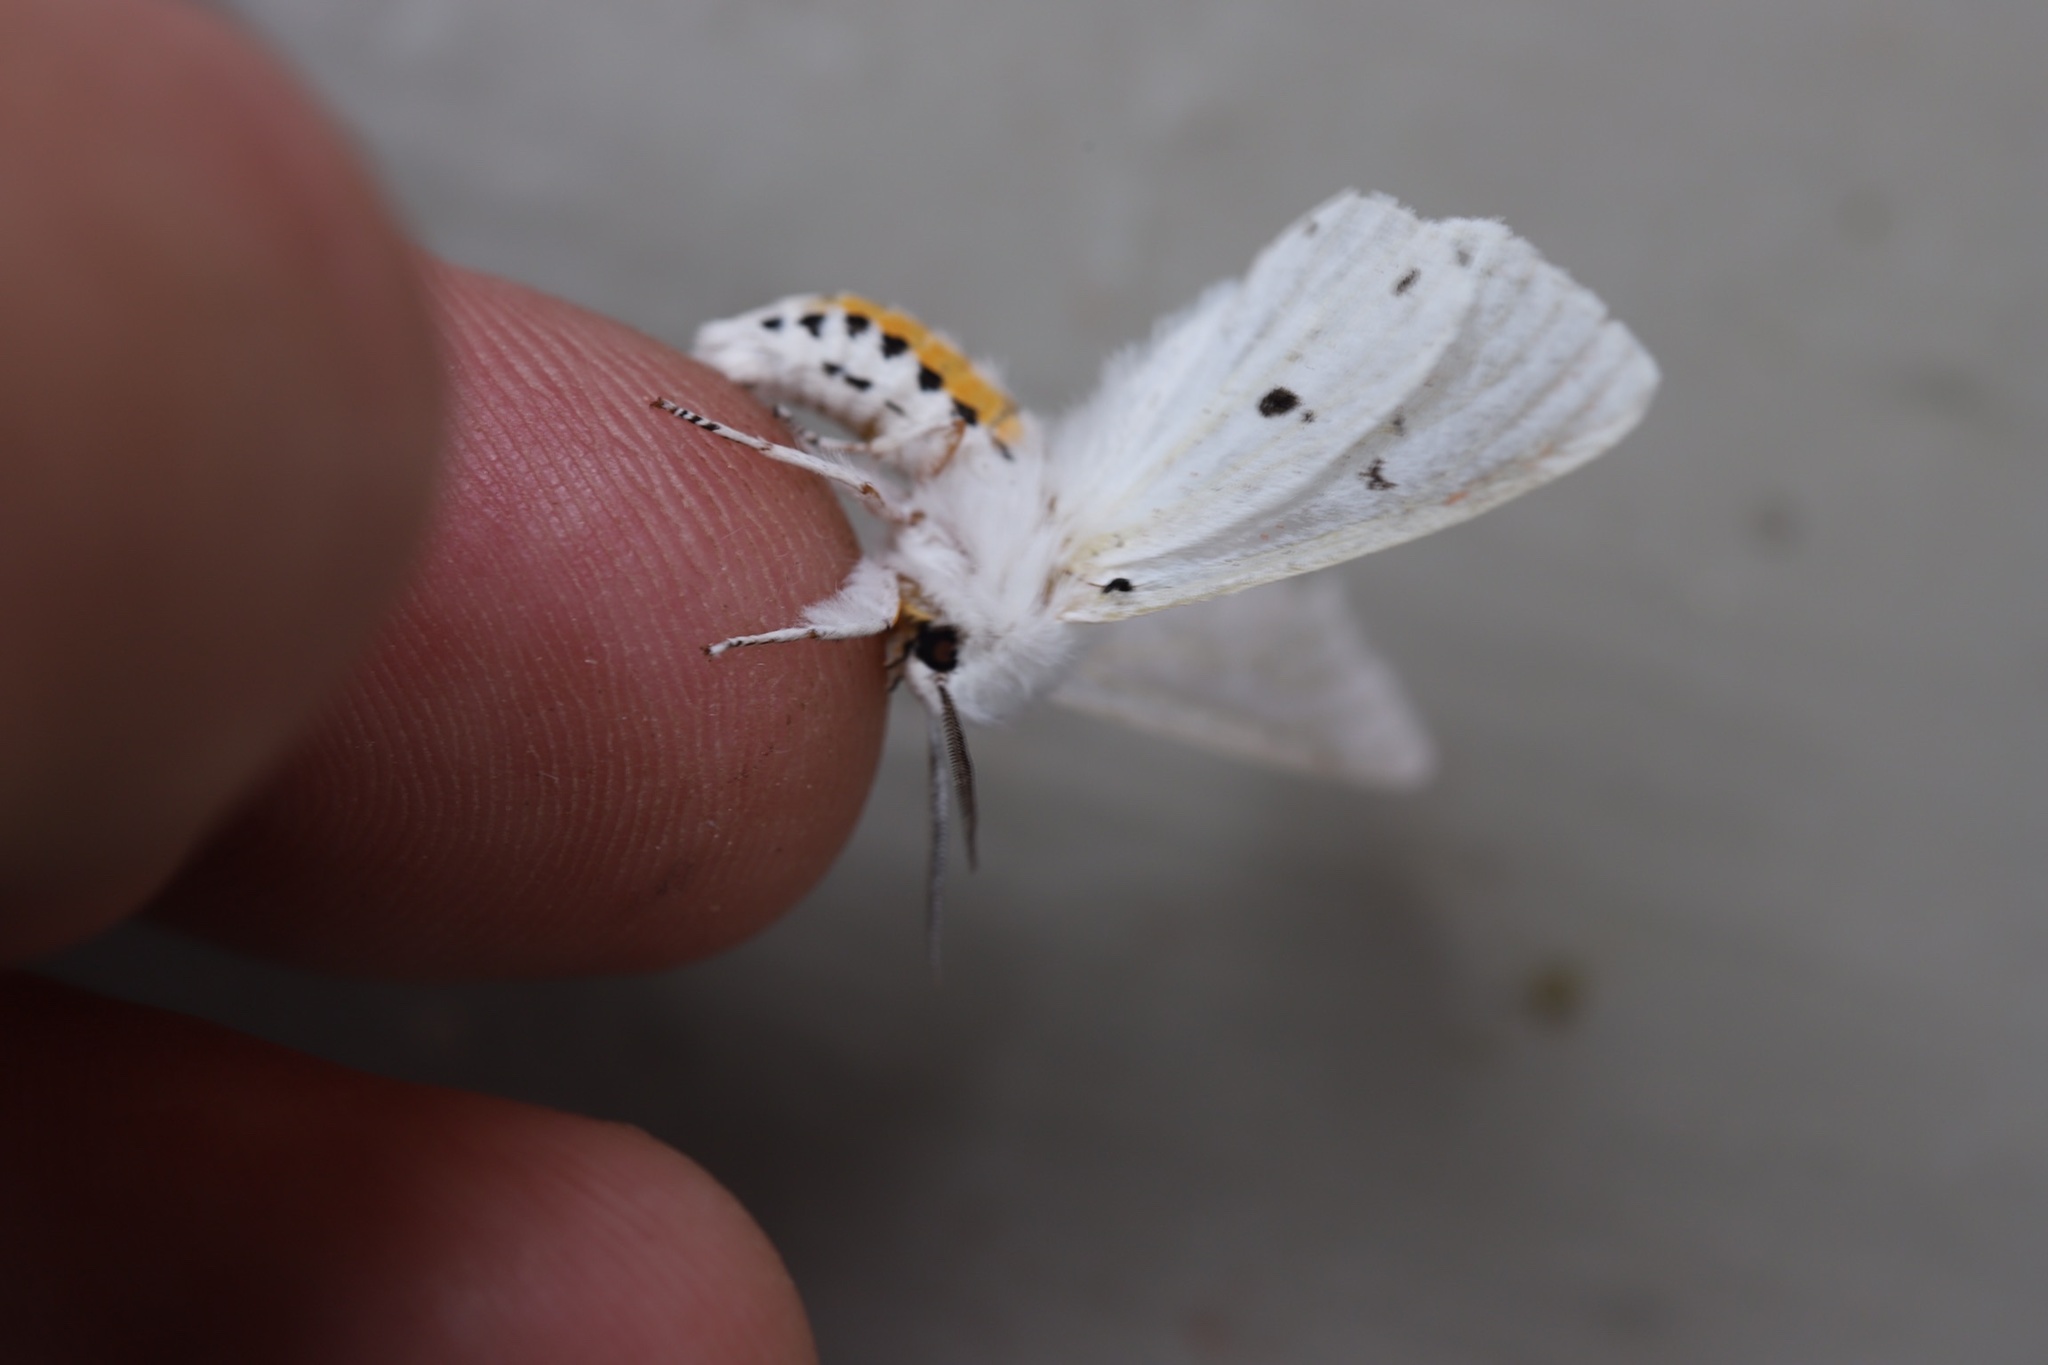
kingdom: Animalia
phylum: Arthropoda
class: Insecta
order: Lepidoptera
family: Erebidae
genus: Spilosoma
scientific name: Spilosoma virginica
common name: Virginia tiger moth
